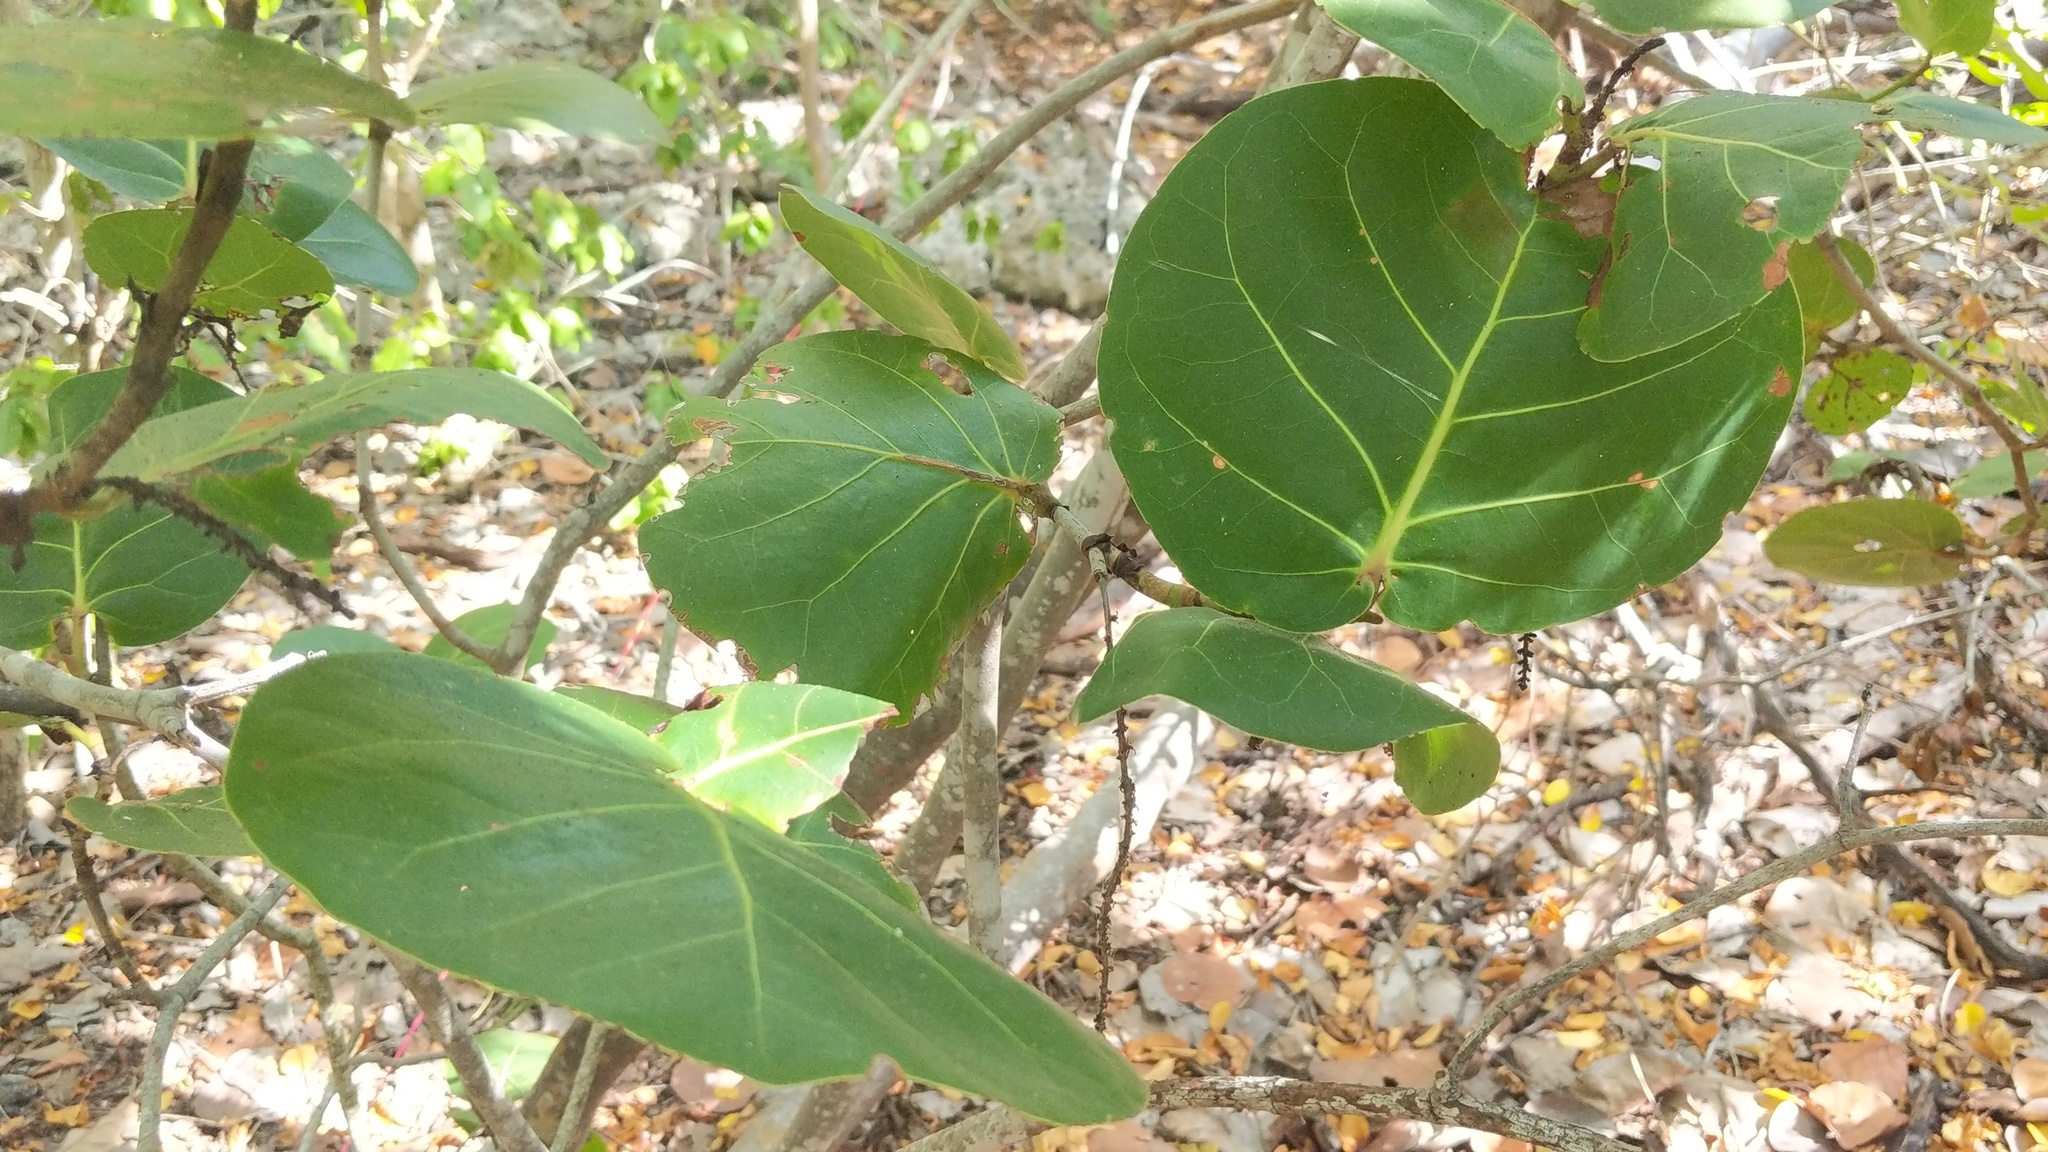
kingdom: Plantae
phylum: Tracheophyta
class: Magnoliopsida
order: Caryophyllales
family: Polygonaceae
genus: Coccoloba
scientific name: Coccoloba uvifera
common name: Seagrape
